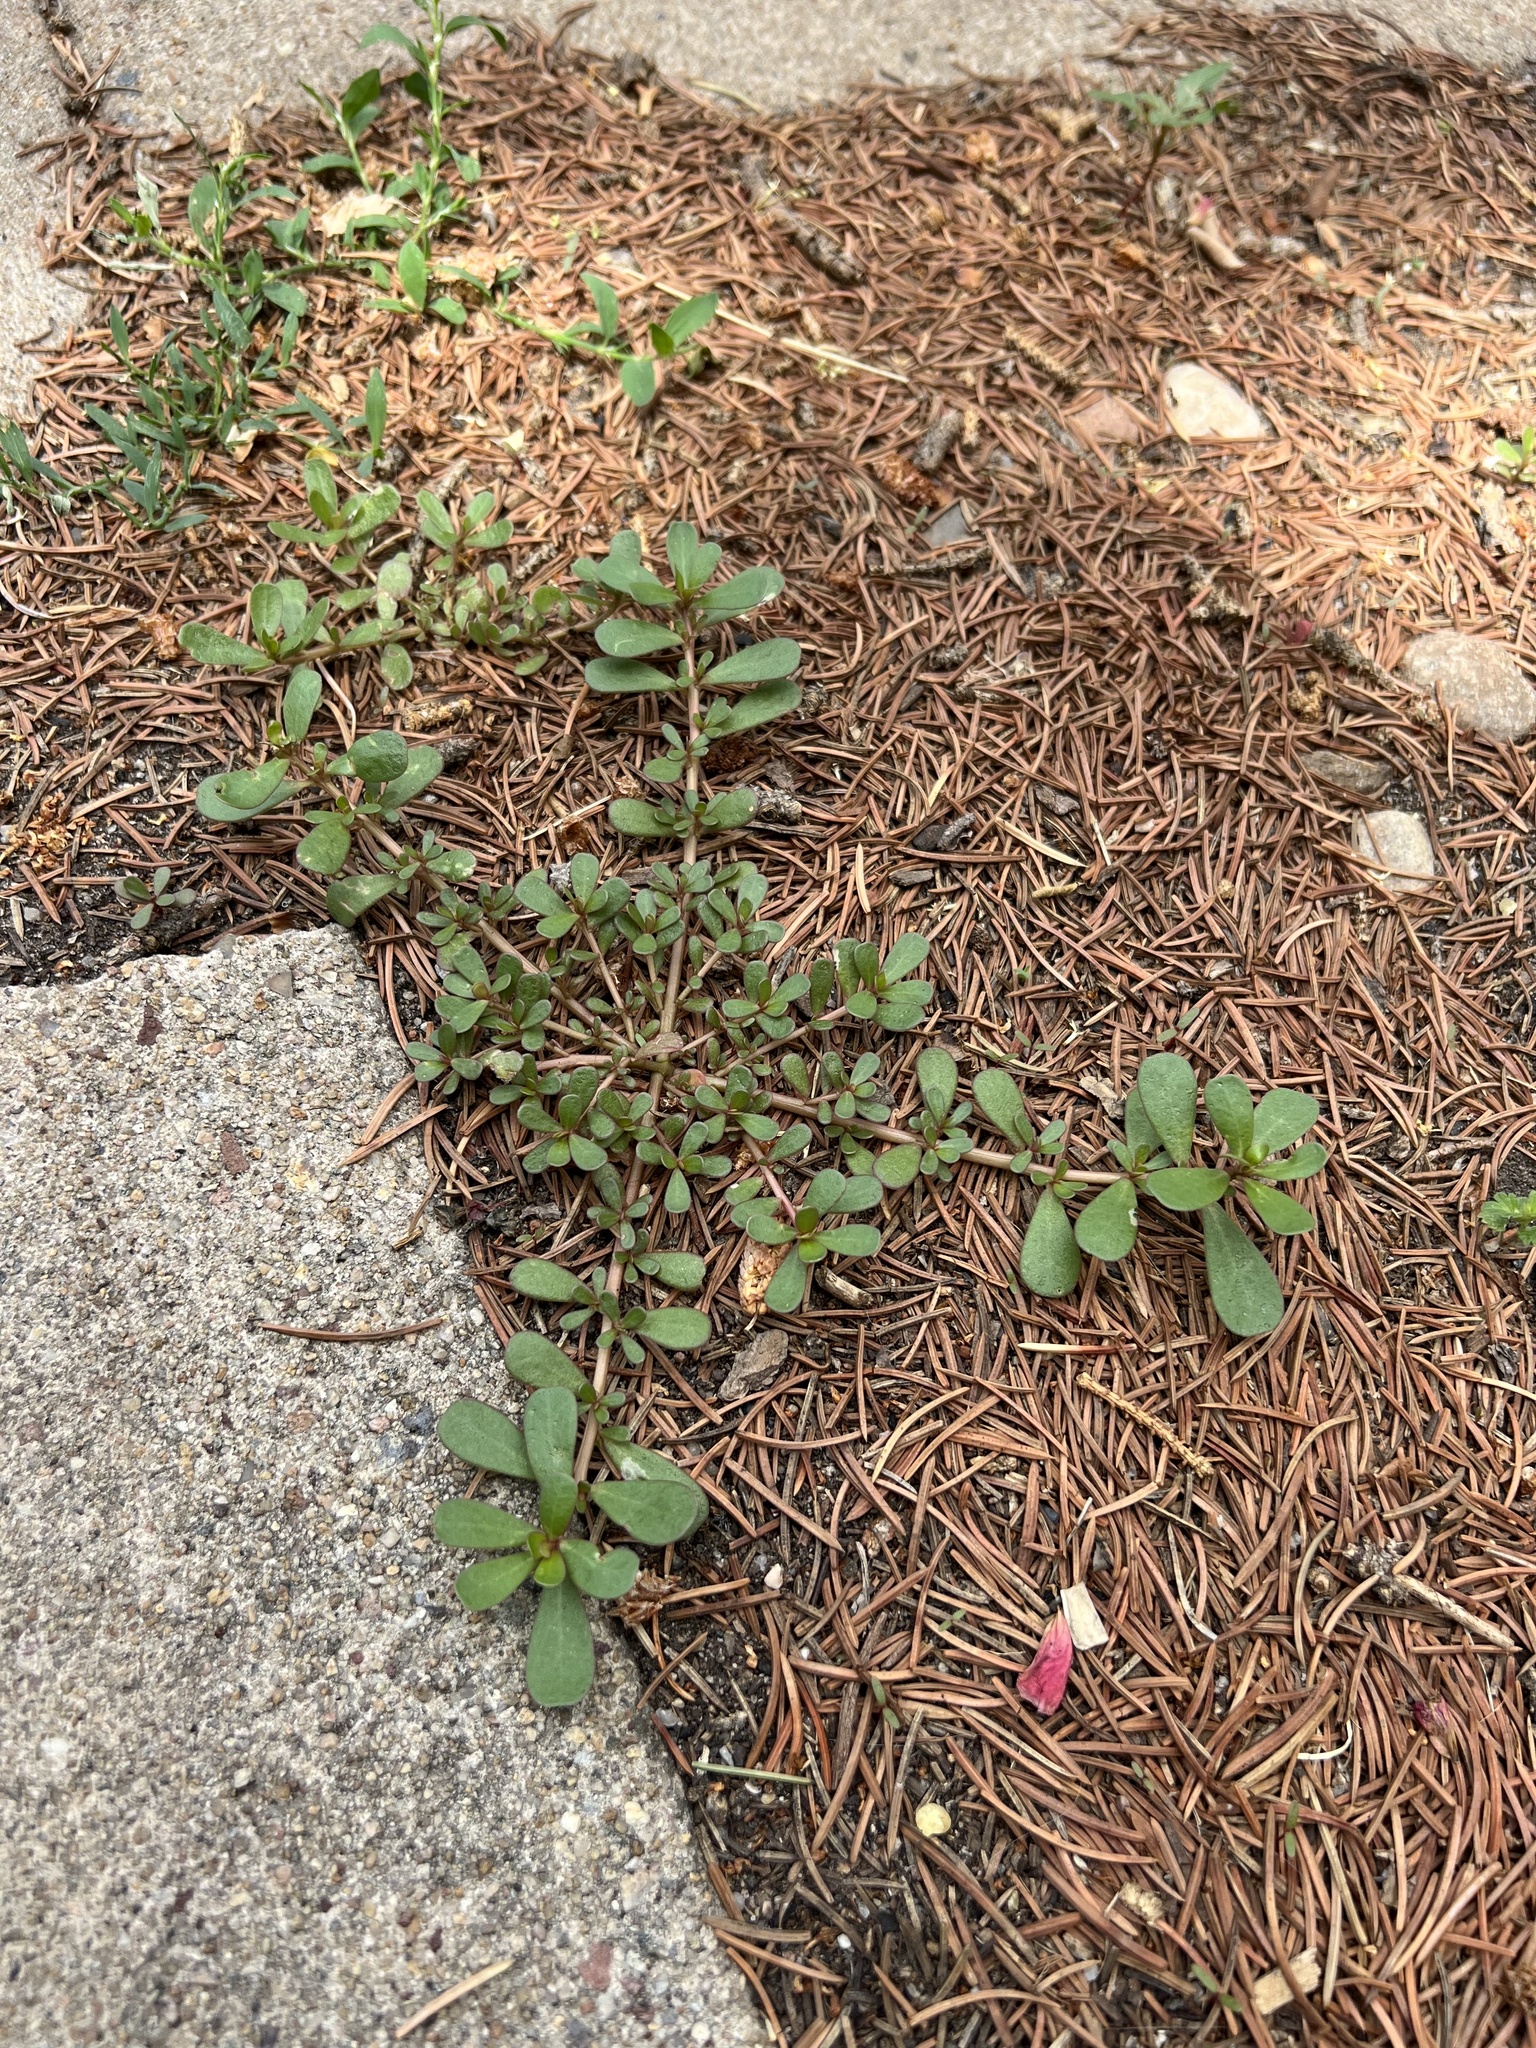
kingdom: Plantae
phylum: Tracheophyta
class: Magnoliopsida
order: Caryophyllales
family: Portulacaceae
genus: Portulaca
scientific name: Portulaca oleracea
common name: Common purslane
